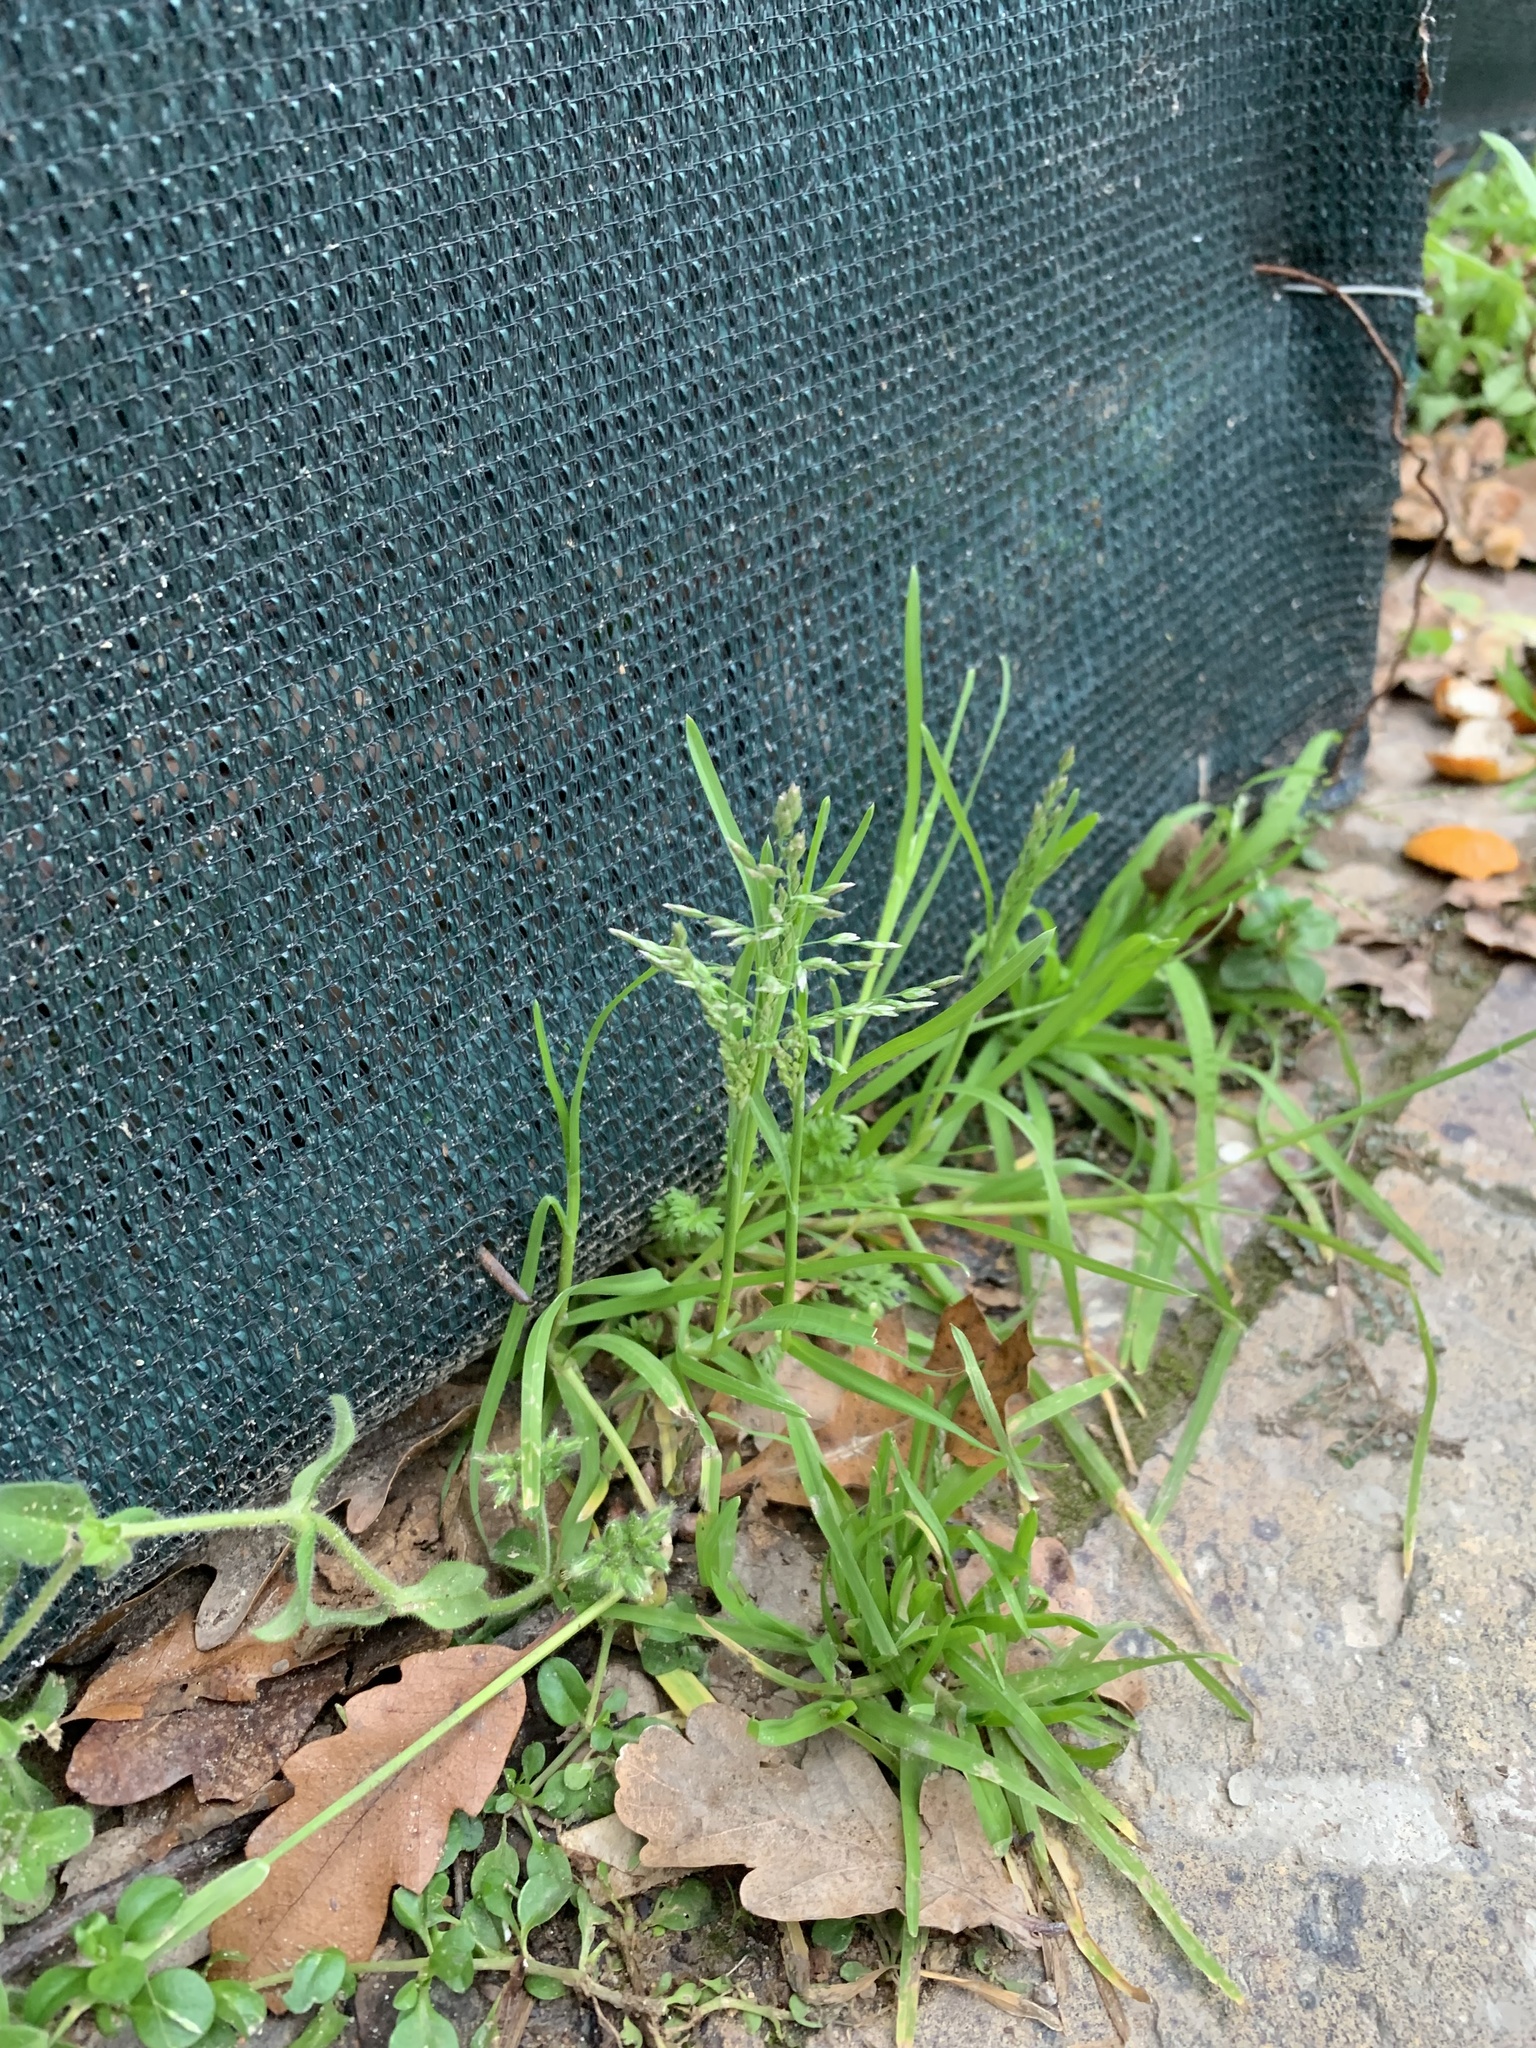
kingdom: Plantae
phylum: Tracheophyta
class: Liliopsida
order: Poales
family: Poaceae
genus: Poa
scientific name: Poa annua
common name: Annual bluegrass
